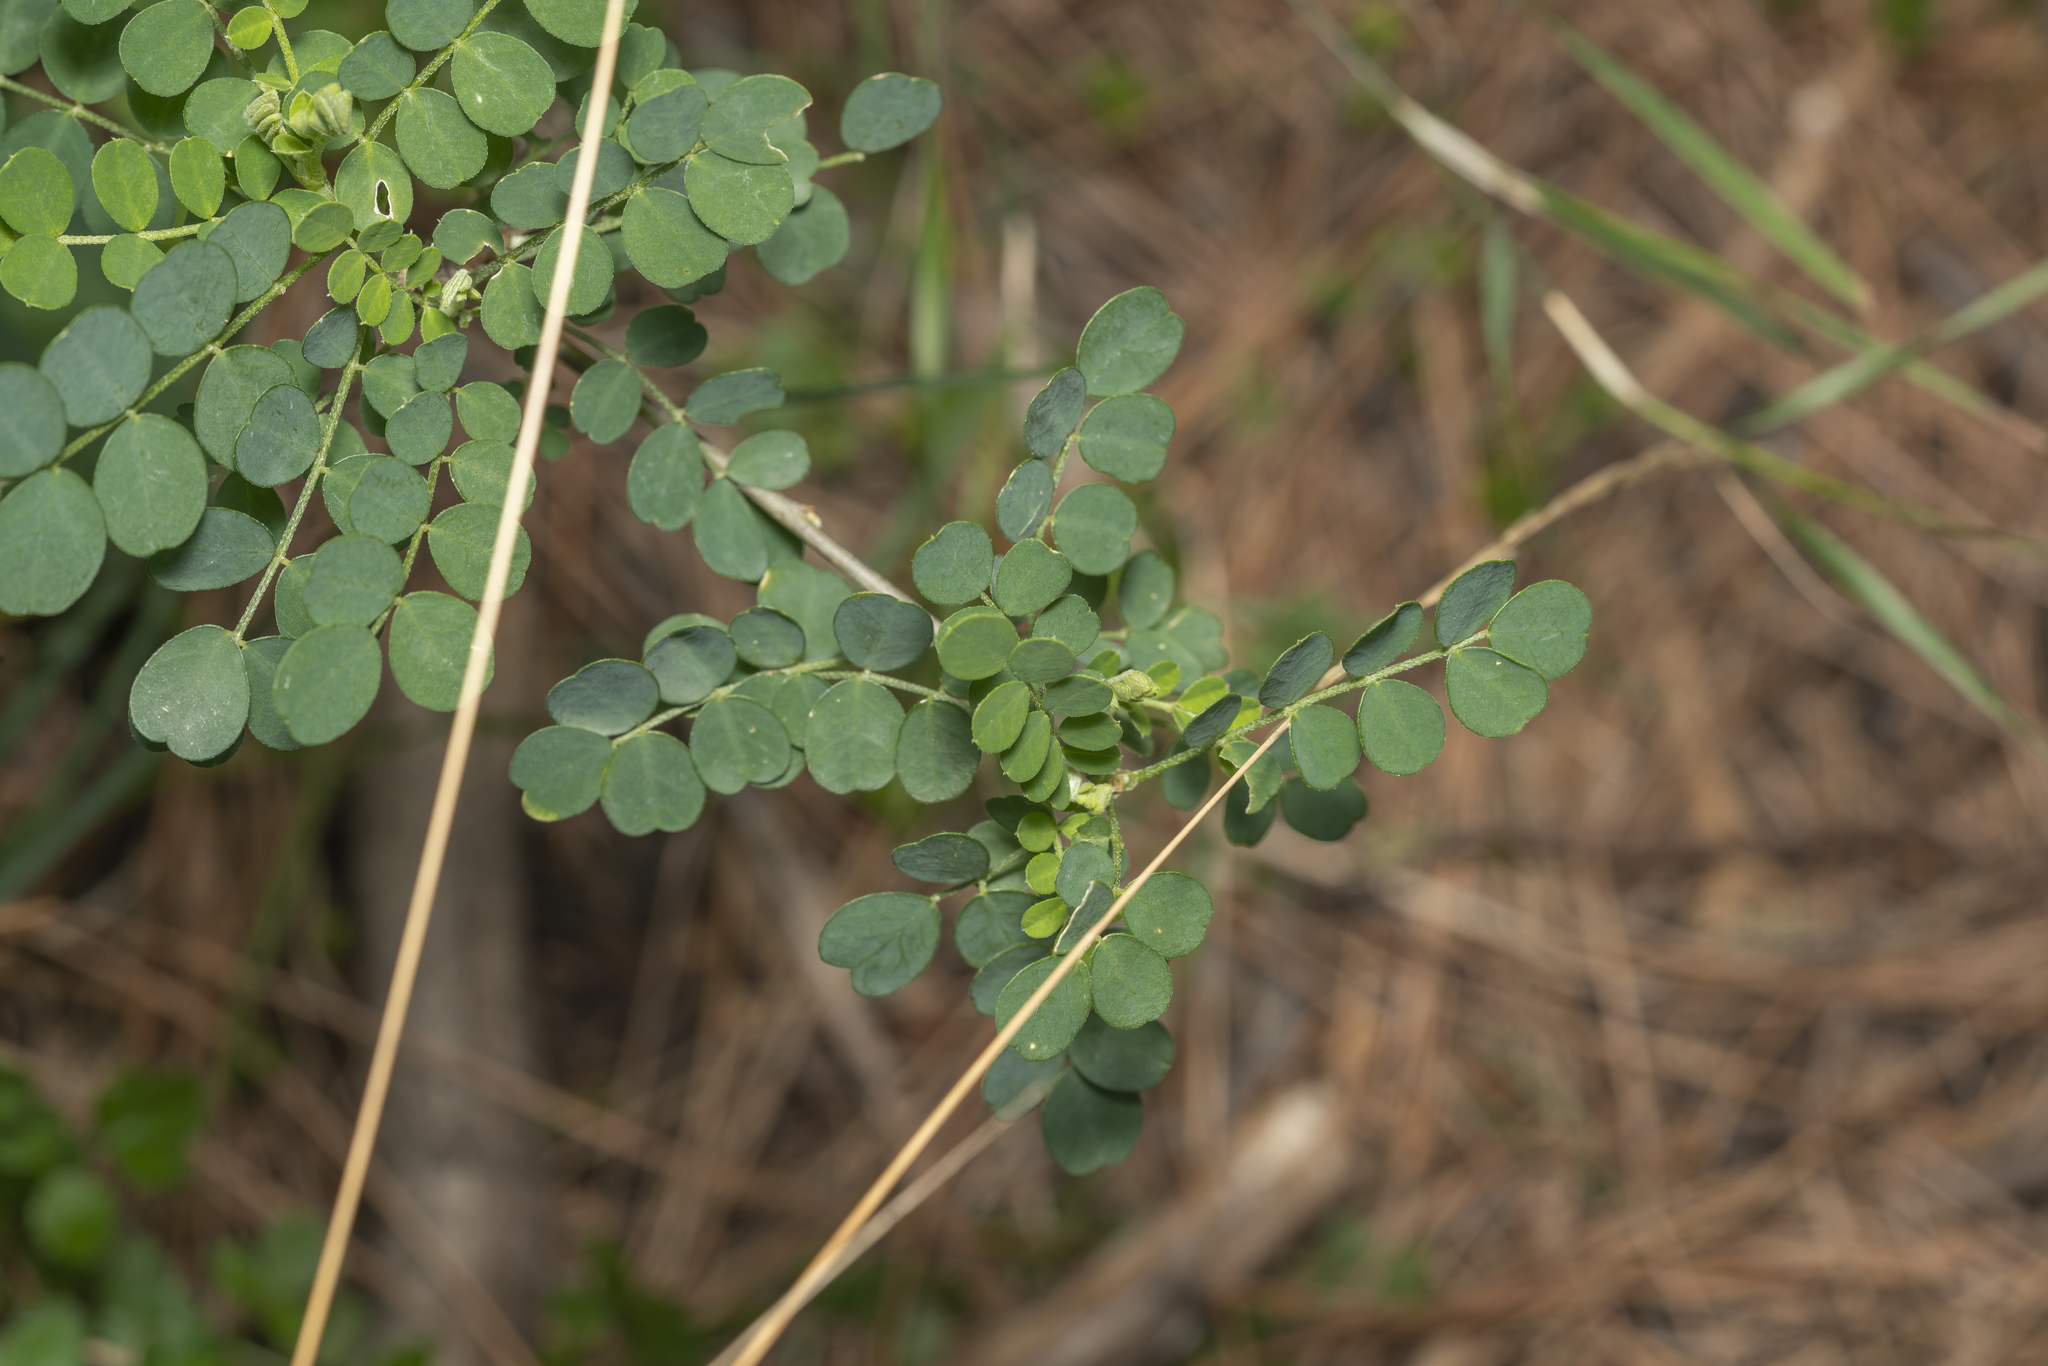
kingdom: Plantae
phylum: Tracheophyta
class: Magnoliopsida
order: Fabales
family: Fabaceae
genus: Colutea
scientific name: Colutea insularis
